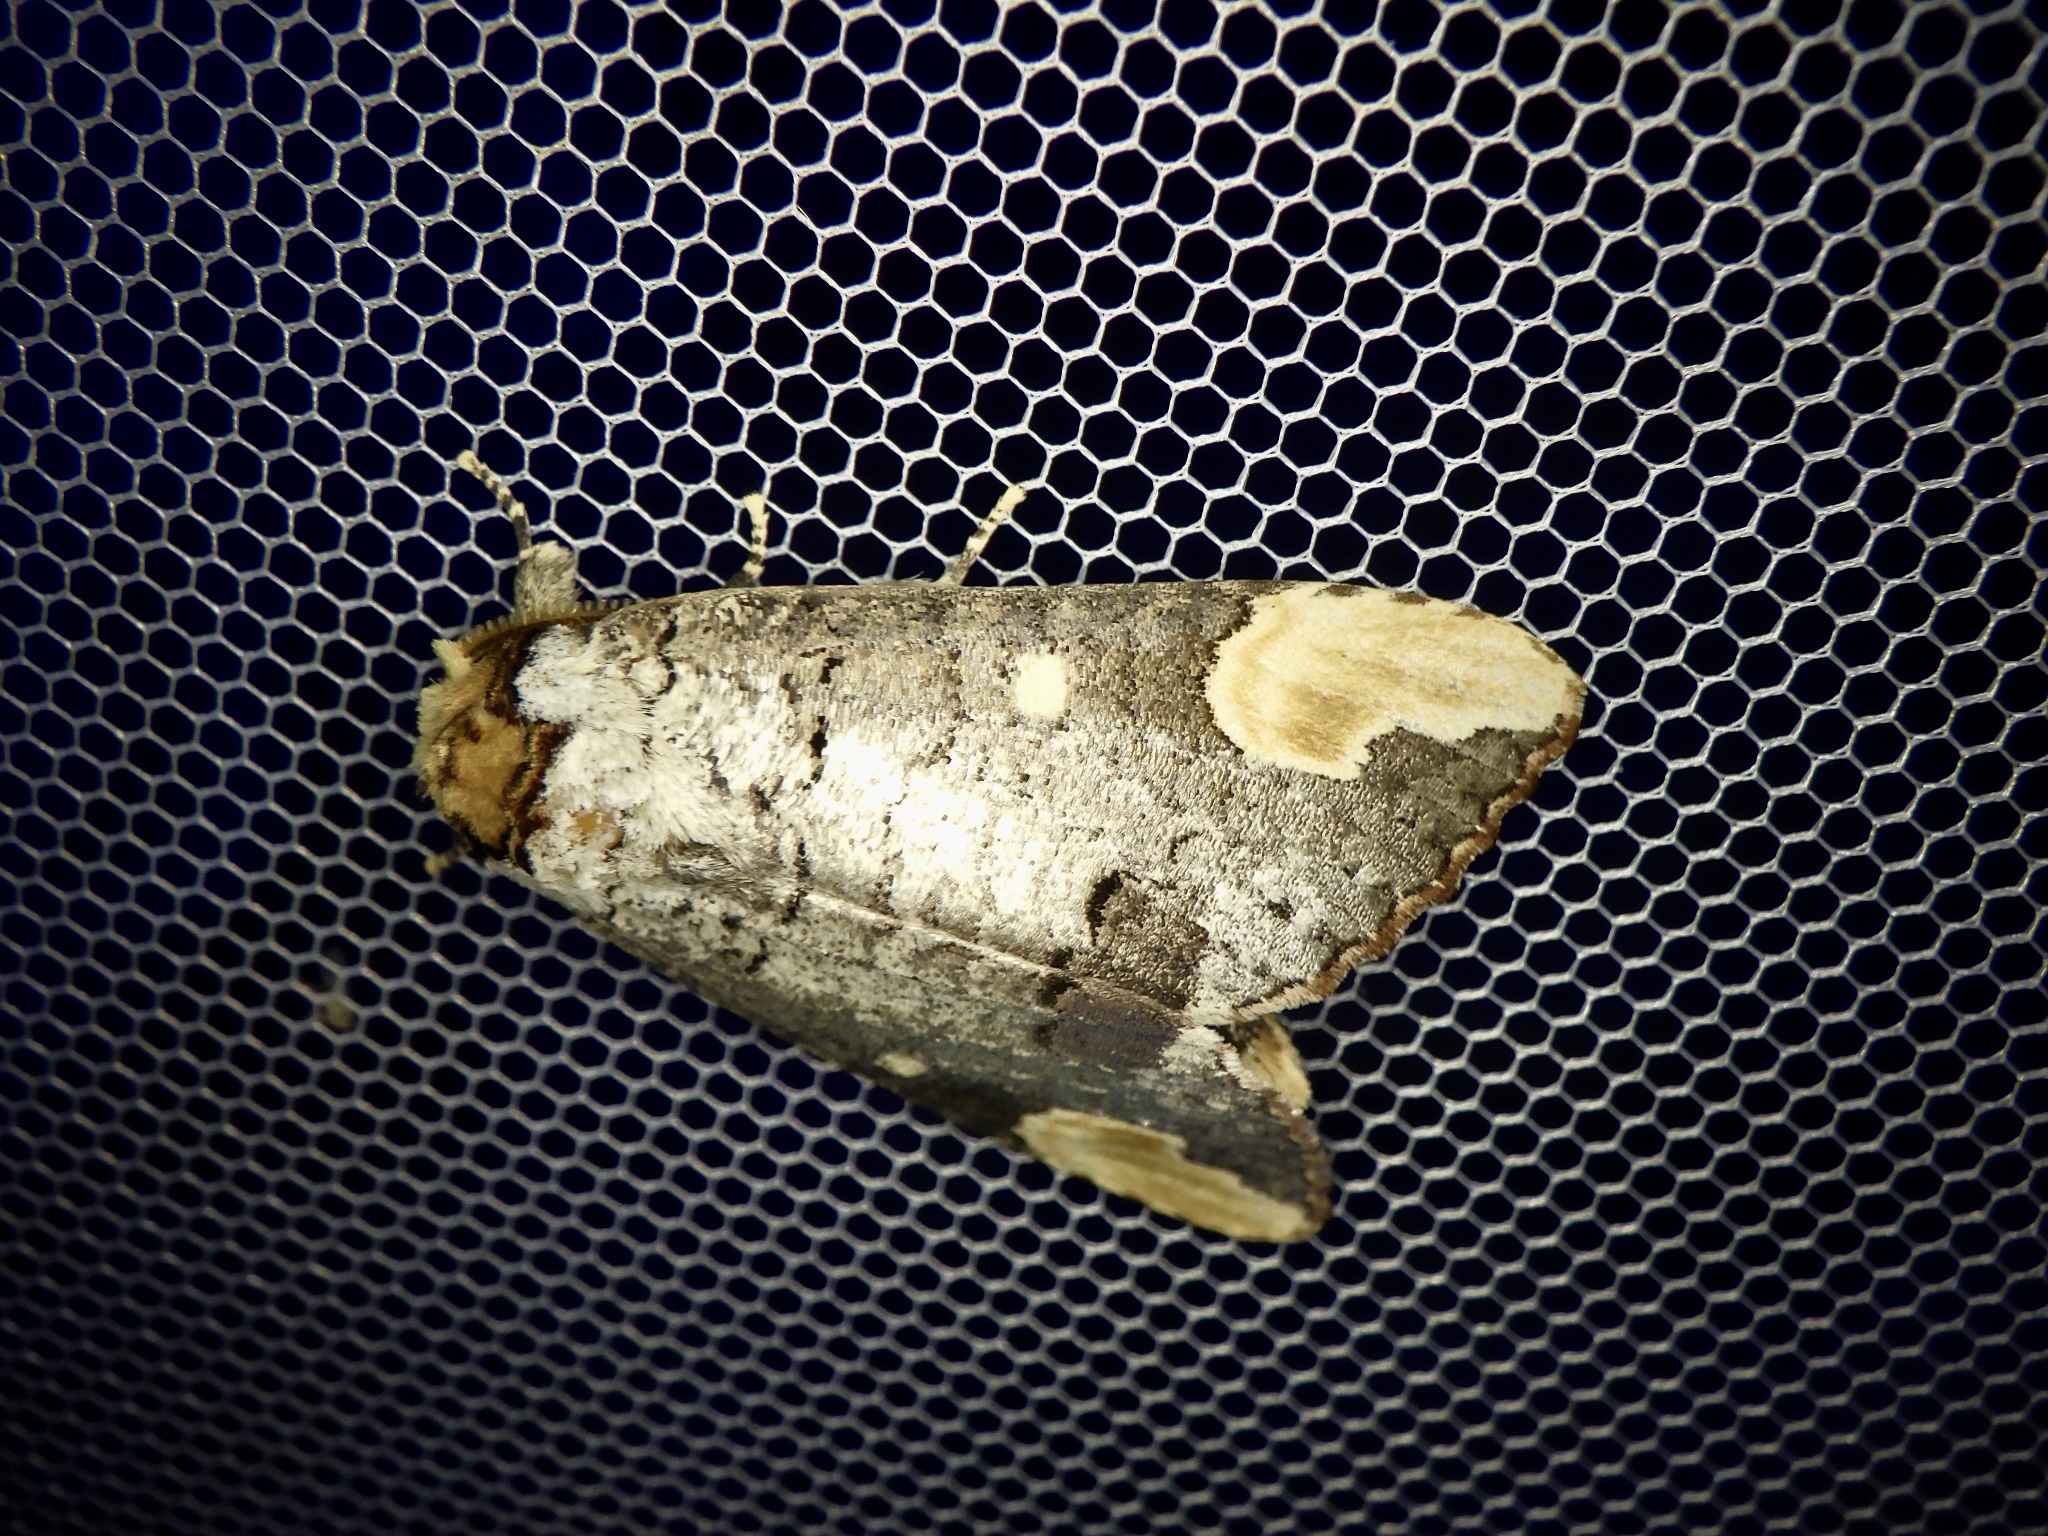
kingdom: Animalia
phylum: Arthropoda
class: Insecta
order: Lepidoptera
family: Notodontidae
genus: Phalera
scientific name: Phalera angustipennis
